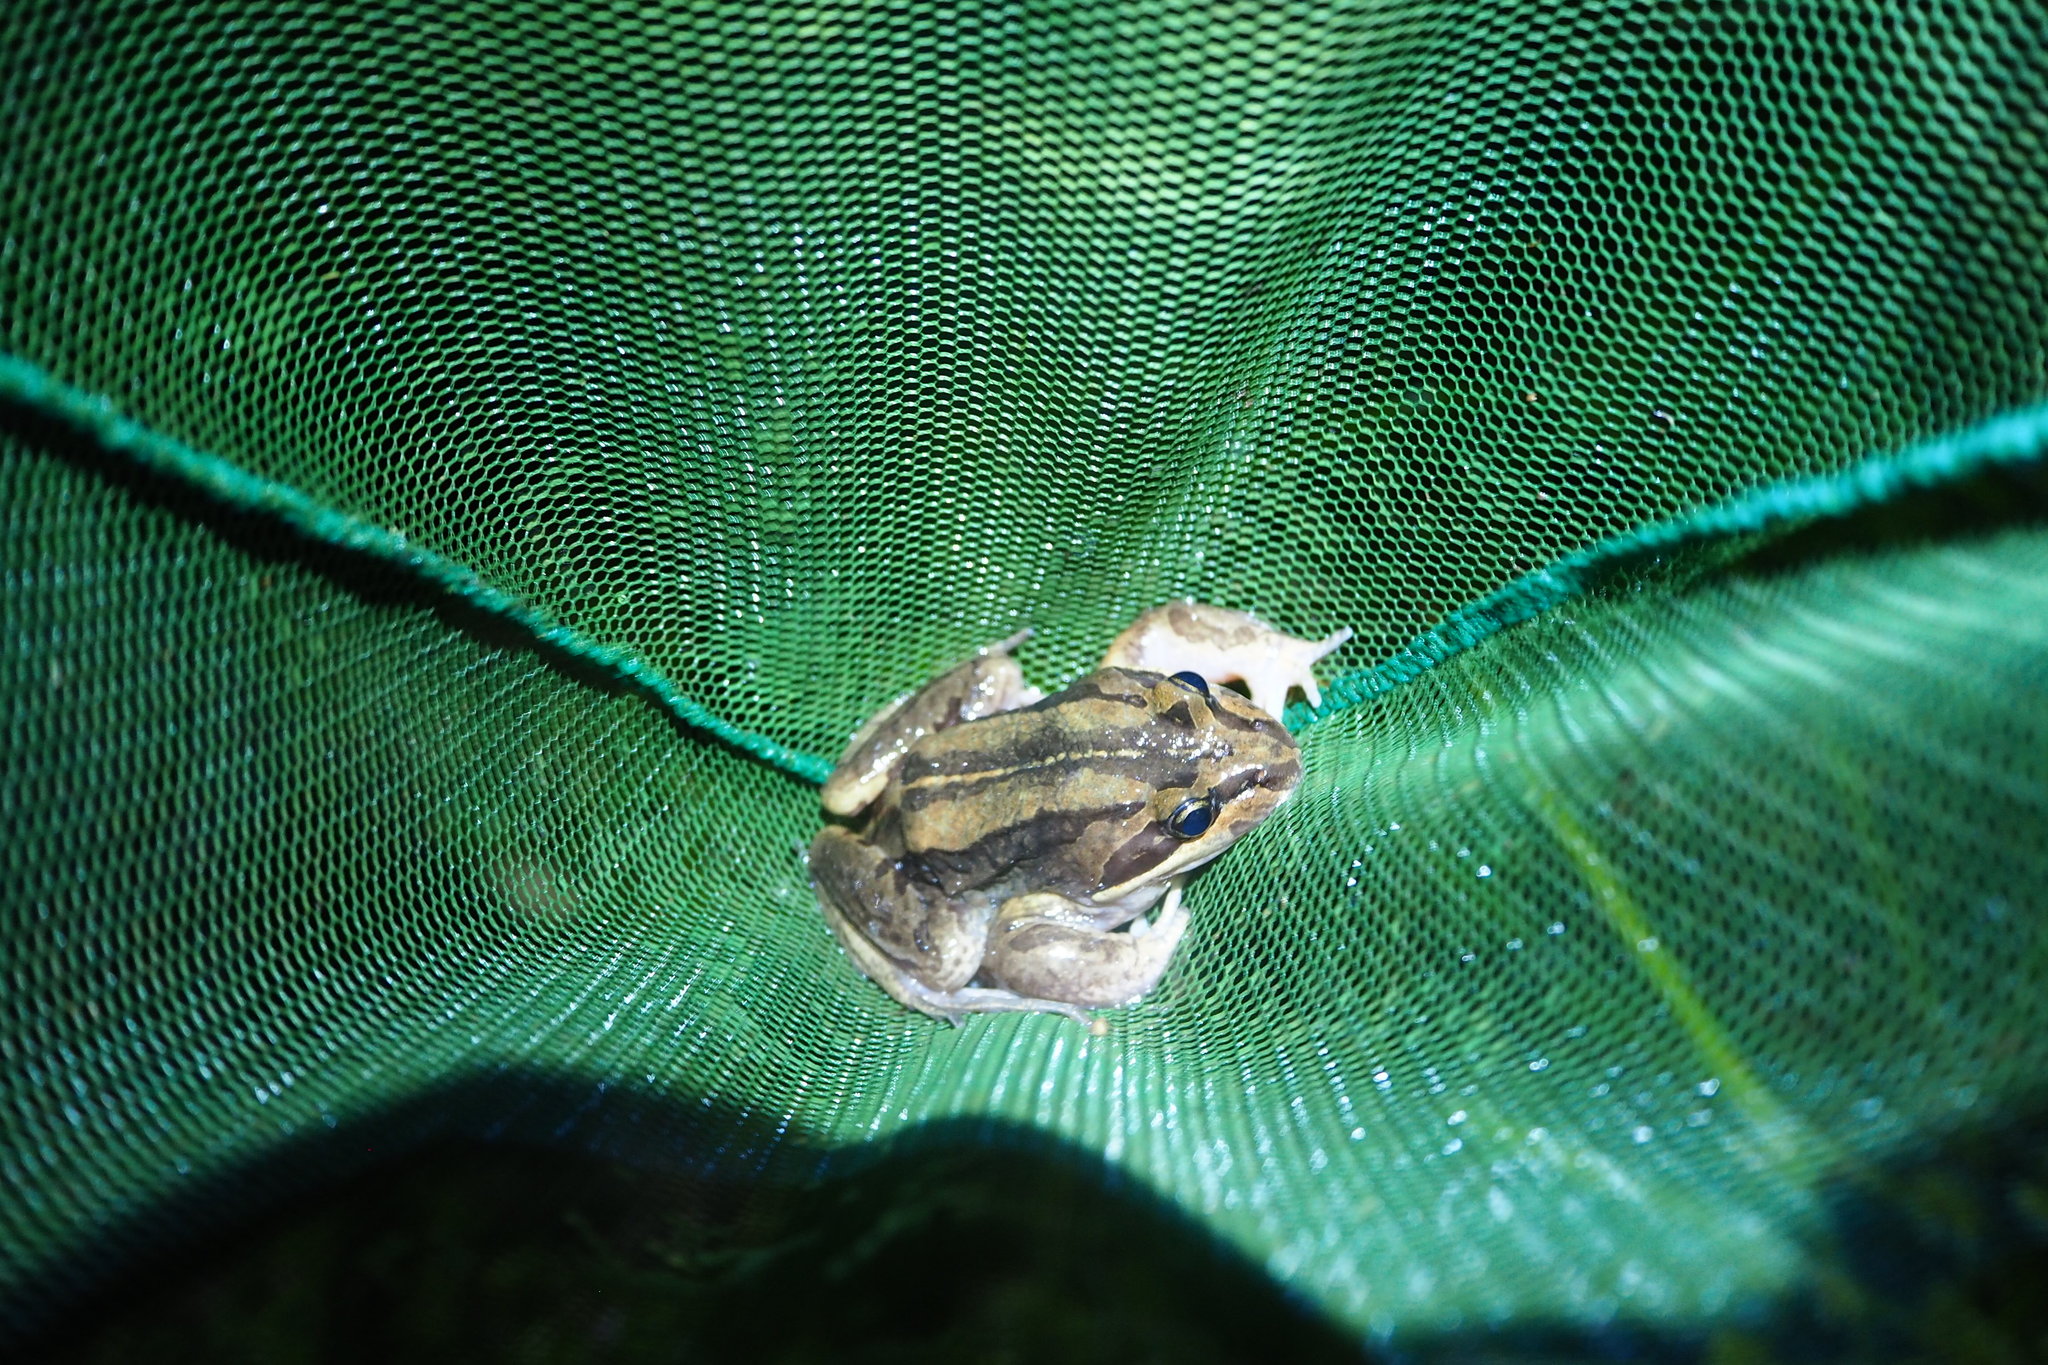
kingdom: Animalia
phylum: Chordata
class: Amphibia
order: Anura
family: Limnodynastidae
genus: Limnodynastes
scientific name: Limnodynastes peronii
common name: Brown frog
